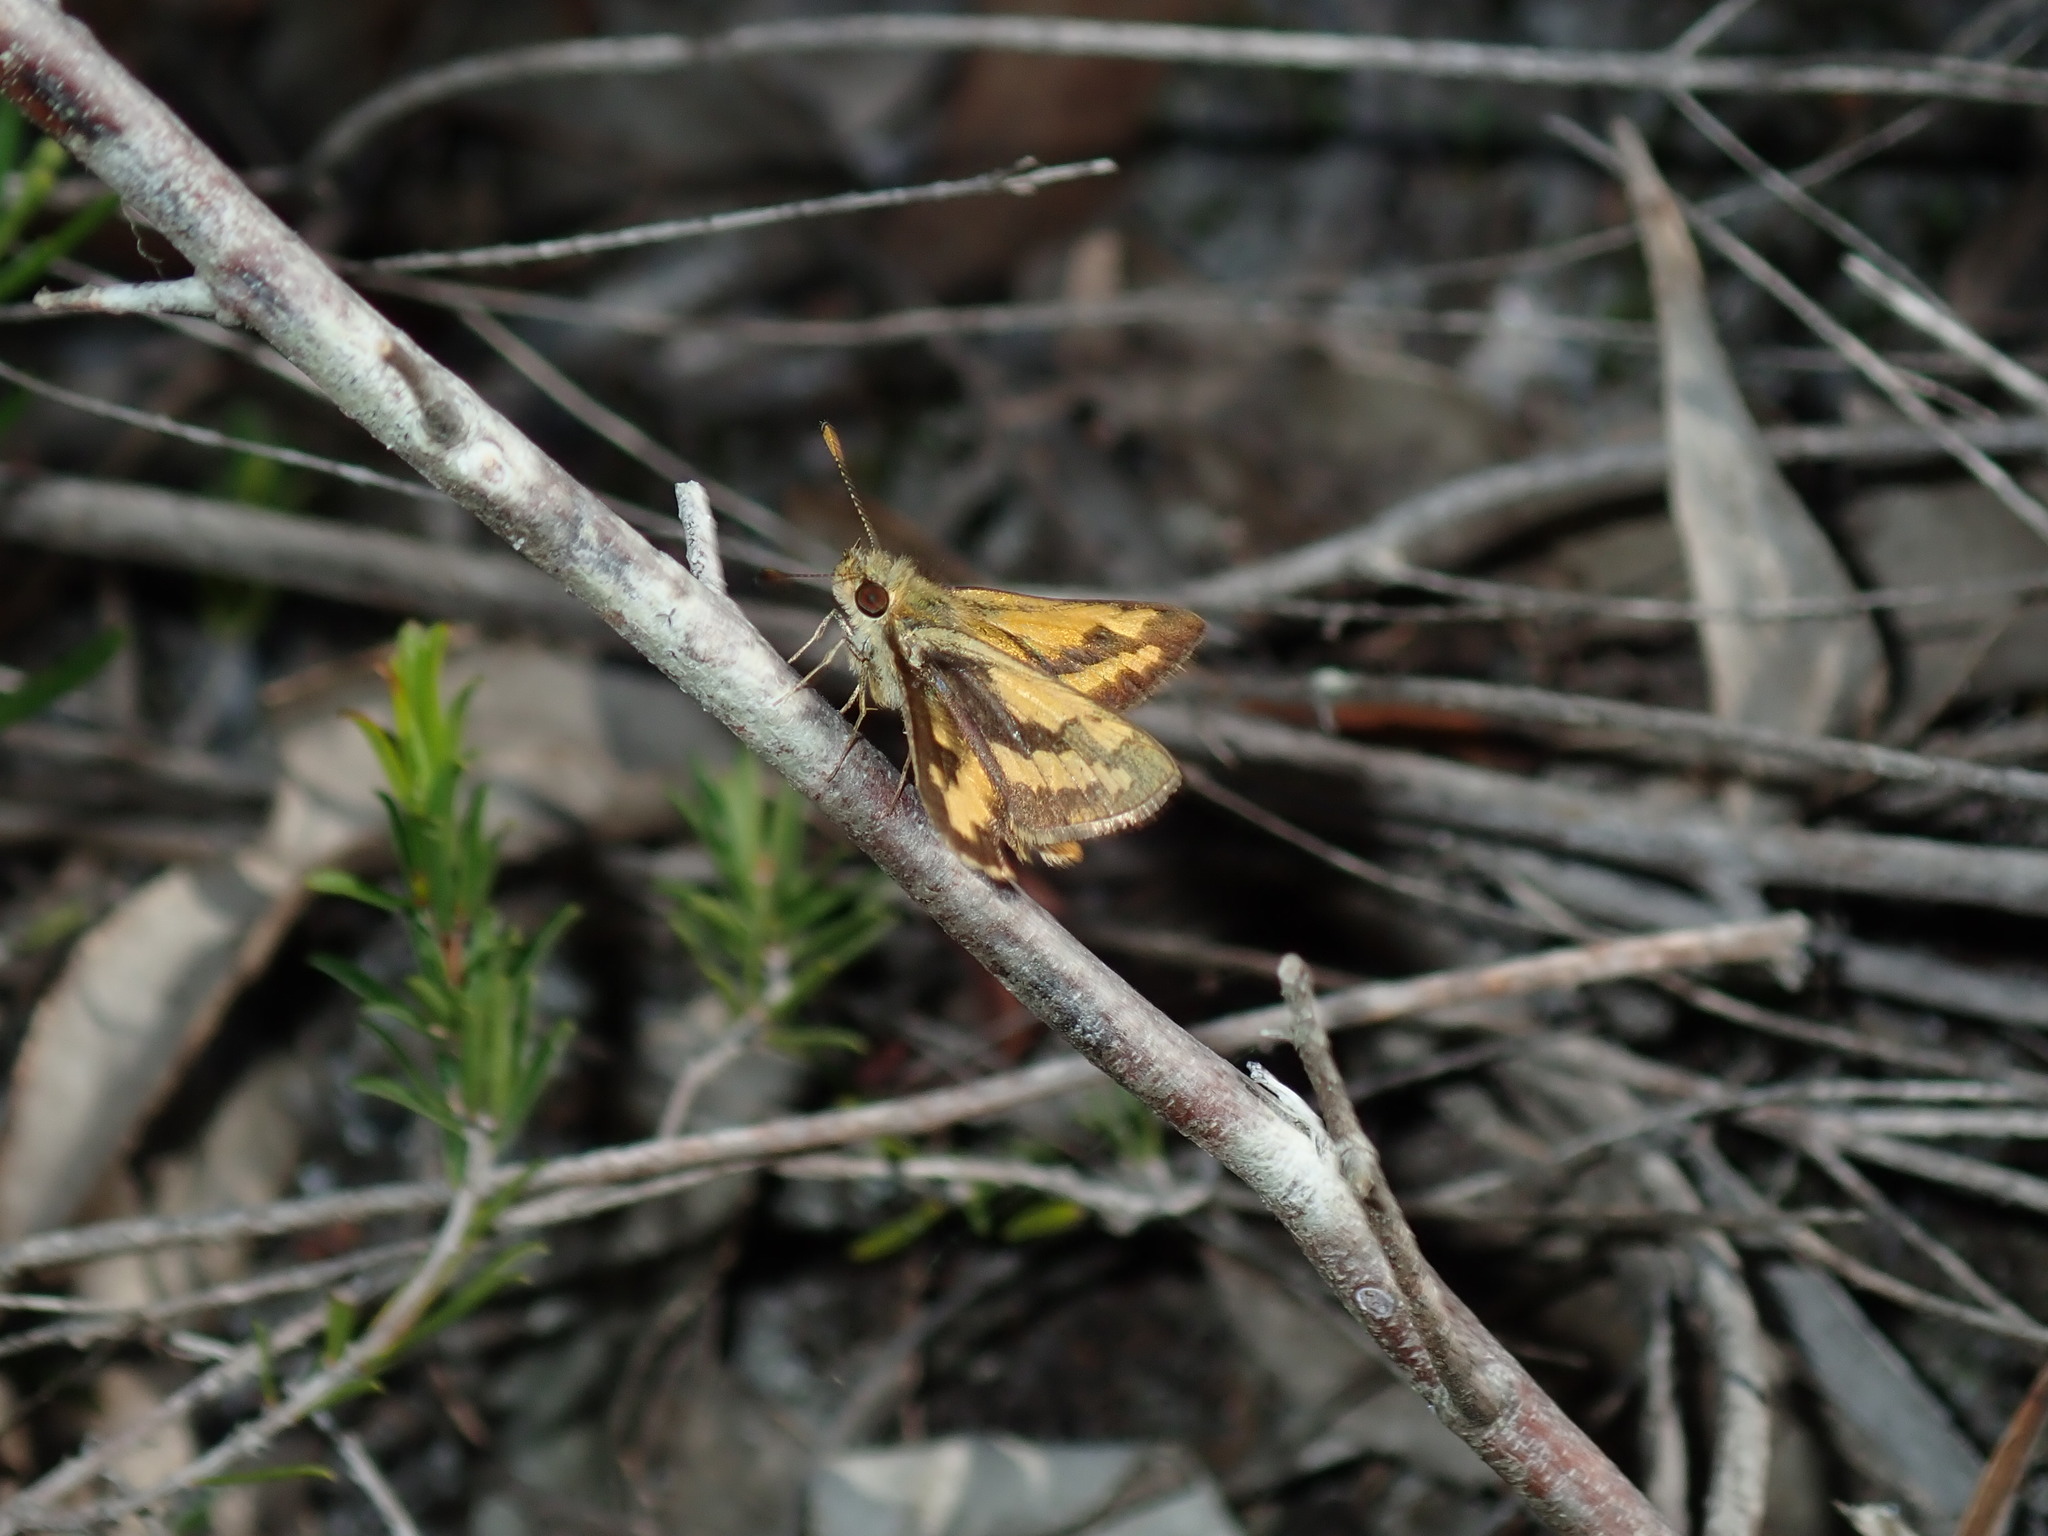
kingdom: Animalia
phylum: Arthropoda
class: Insecta
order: Lepidoptera
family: Hesperiidae
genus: Ocybadistes
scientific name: Ocybadistes walkeri
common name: Yellow-banded dart
